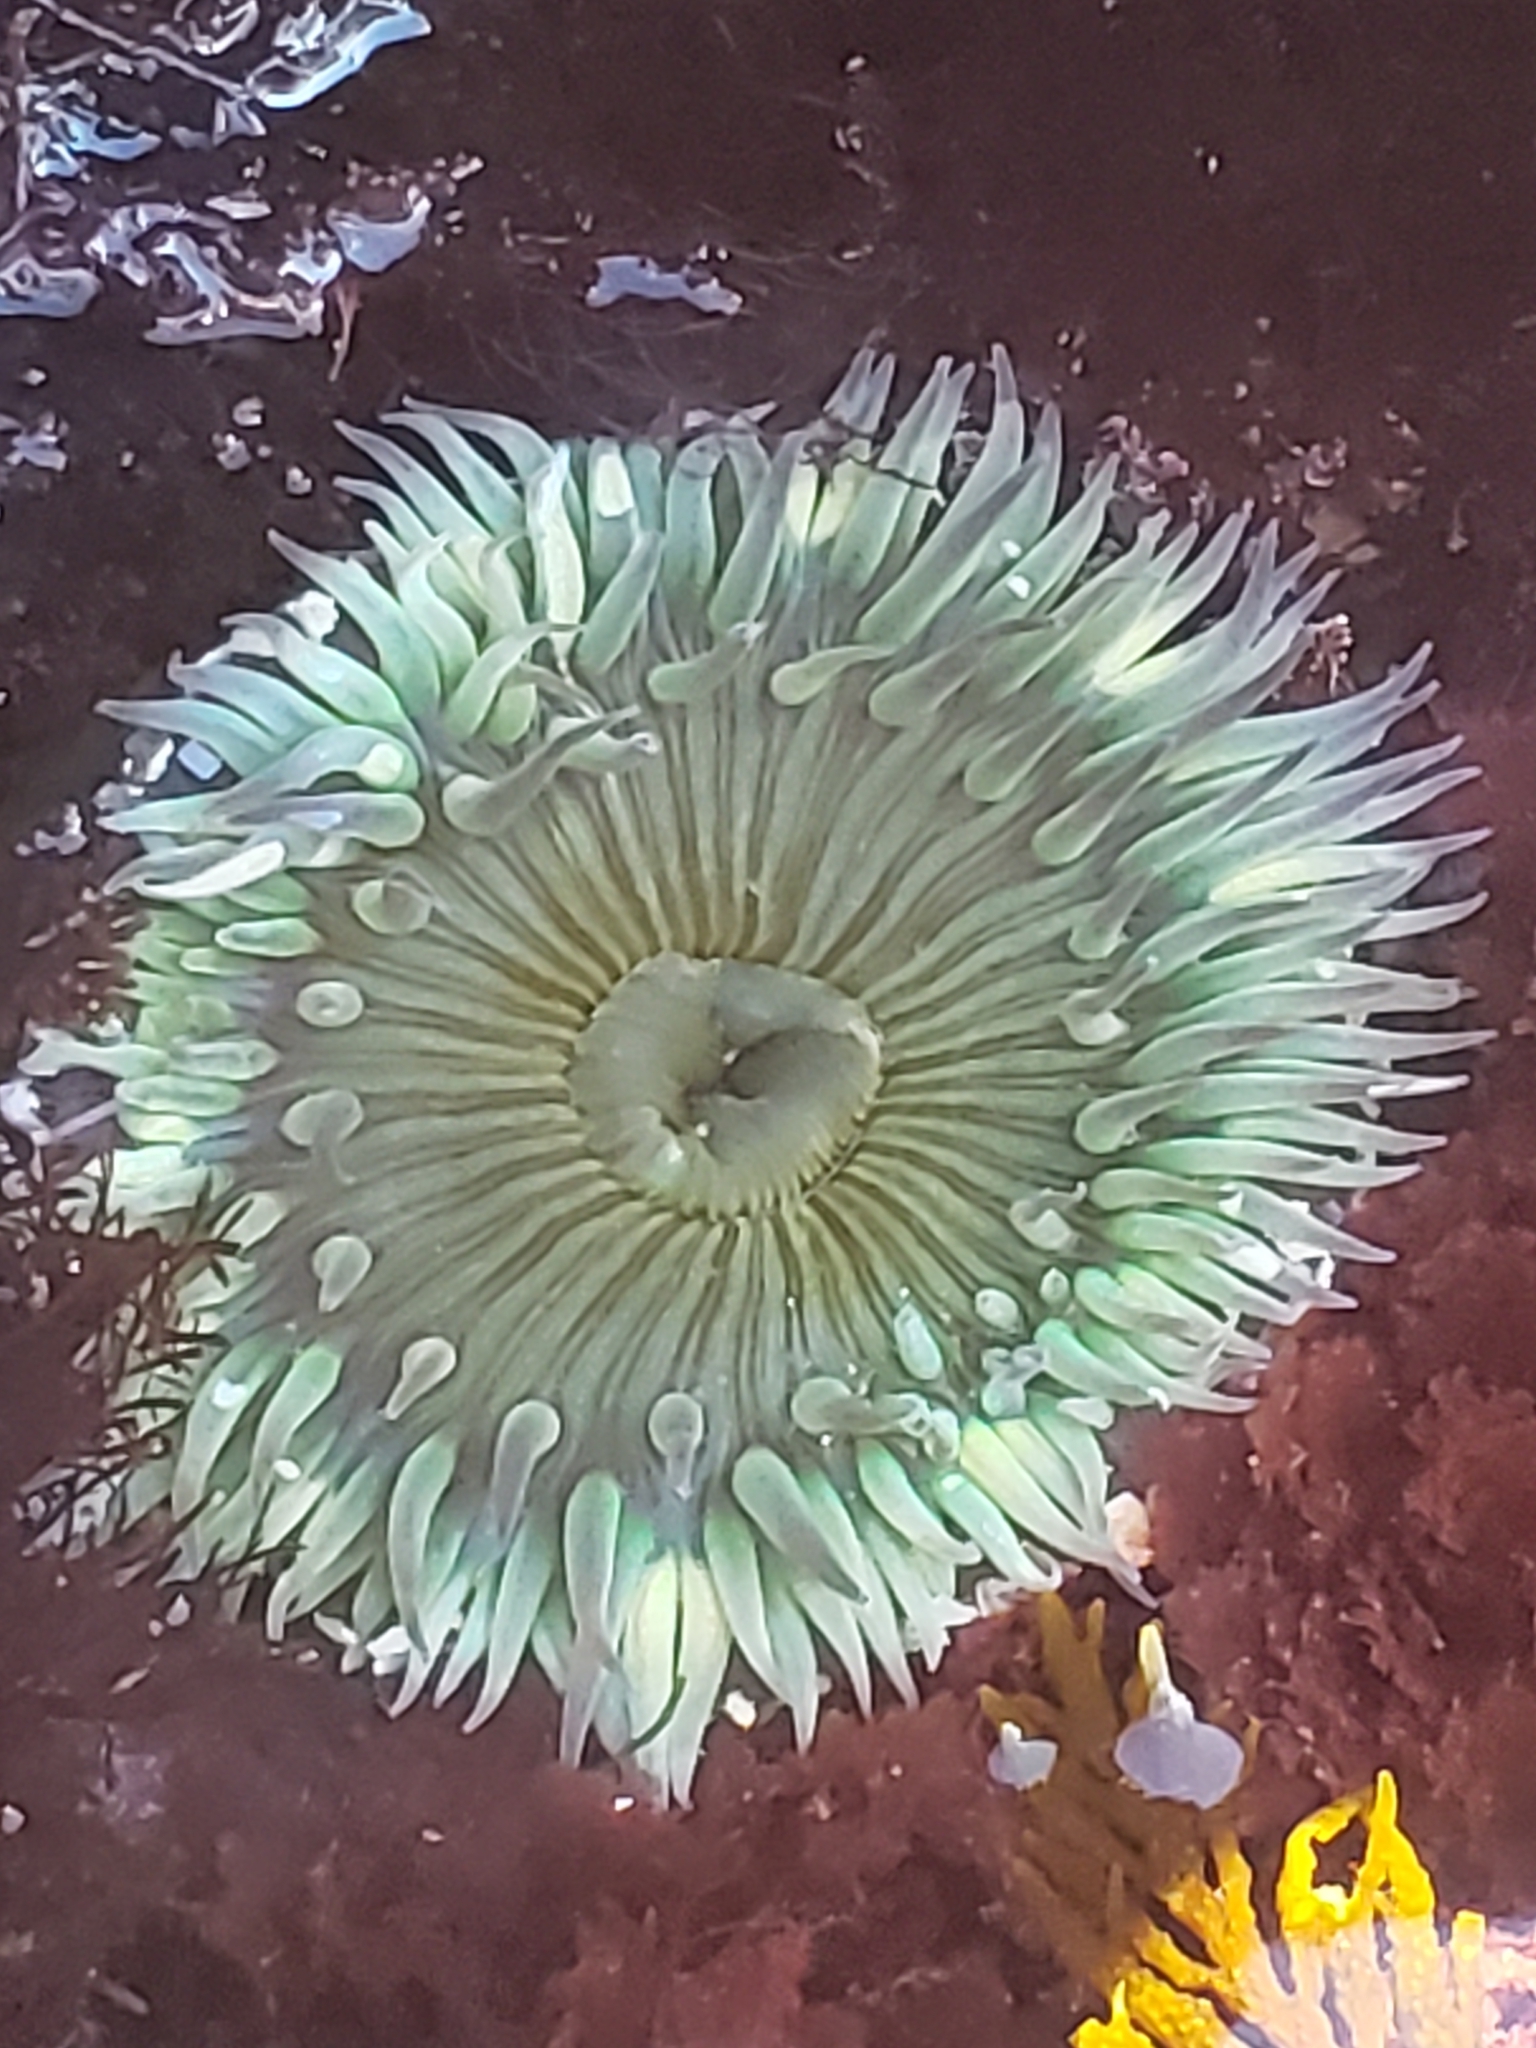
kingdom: Animalia
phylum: Cnidaria
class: Anthozoa
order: Actiniaria
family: Actiniidae
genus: Anthopleura
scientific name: Anthopleura sola
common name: Sun anemone
